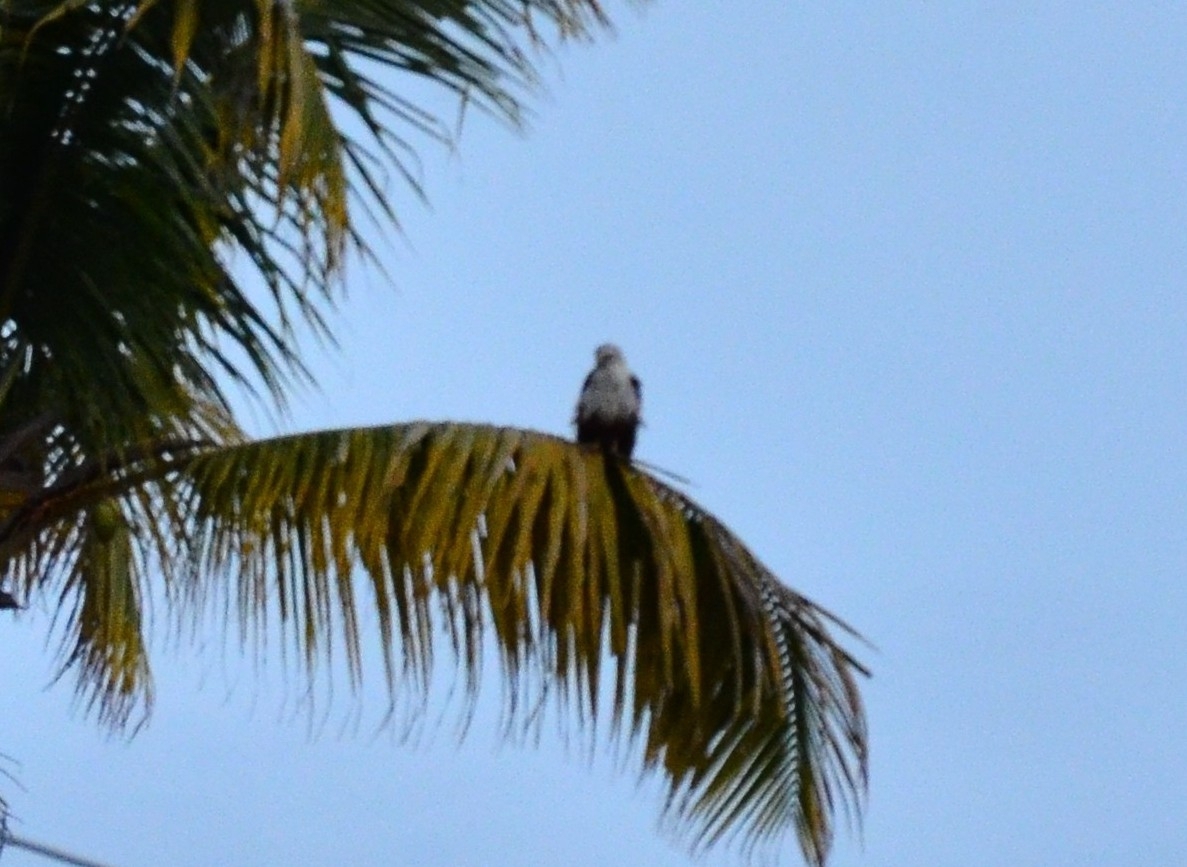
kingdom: Animalia
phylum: Chordata
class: Aves
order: Accipitriformes
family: Accipitridae
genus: Haliastur
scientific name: Haliastur indus
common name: Brahminy kite
